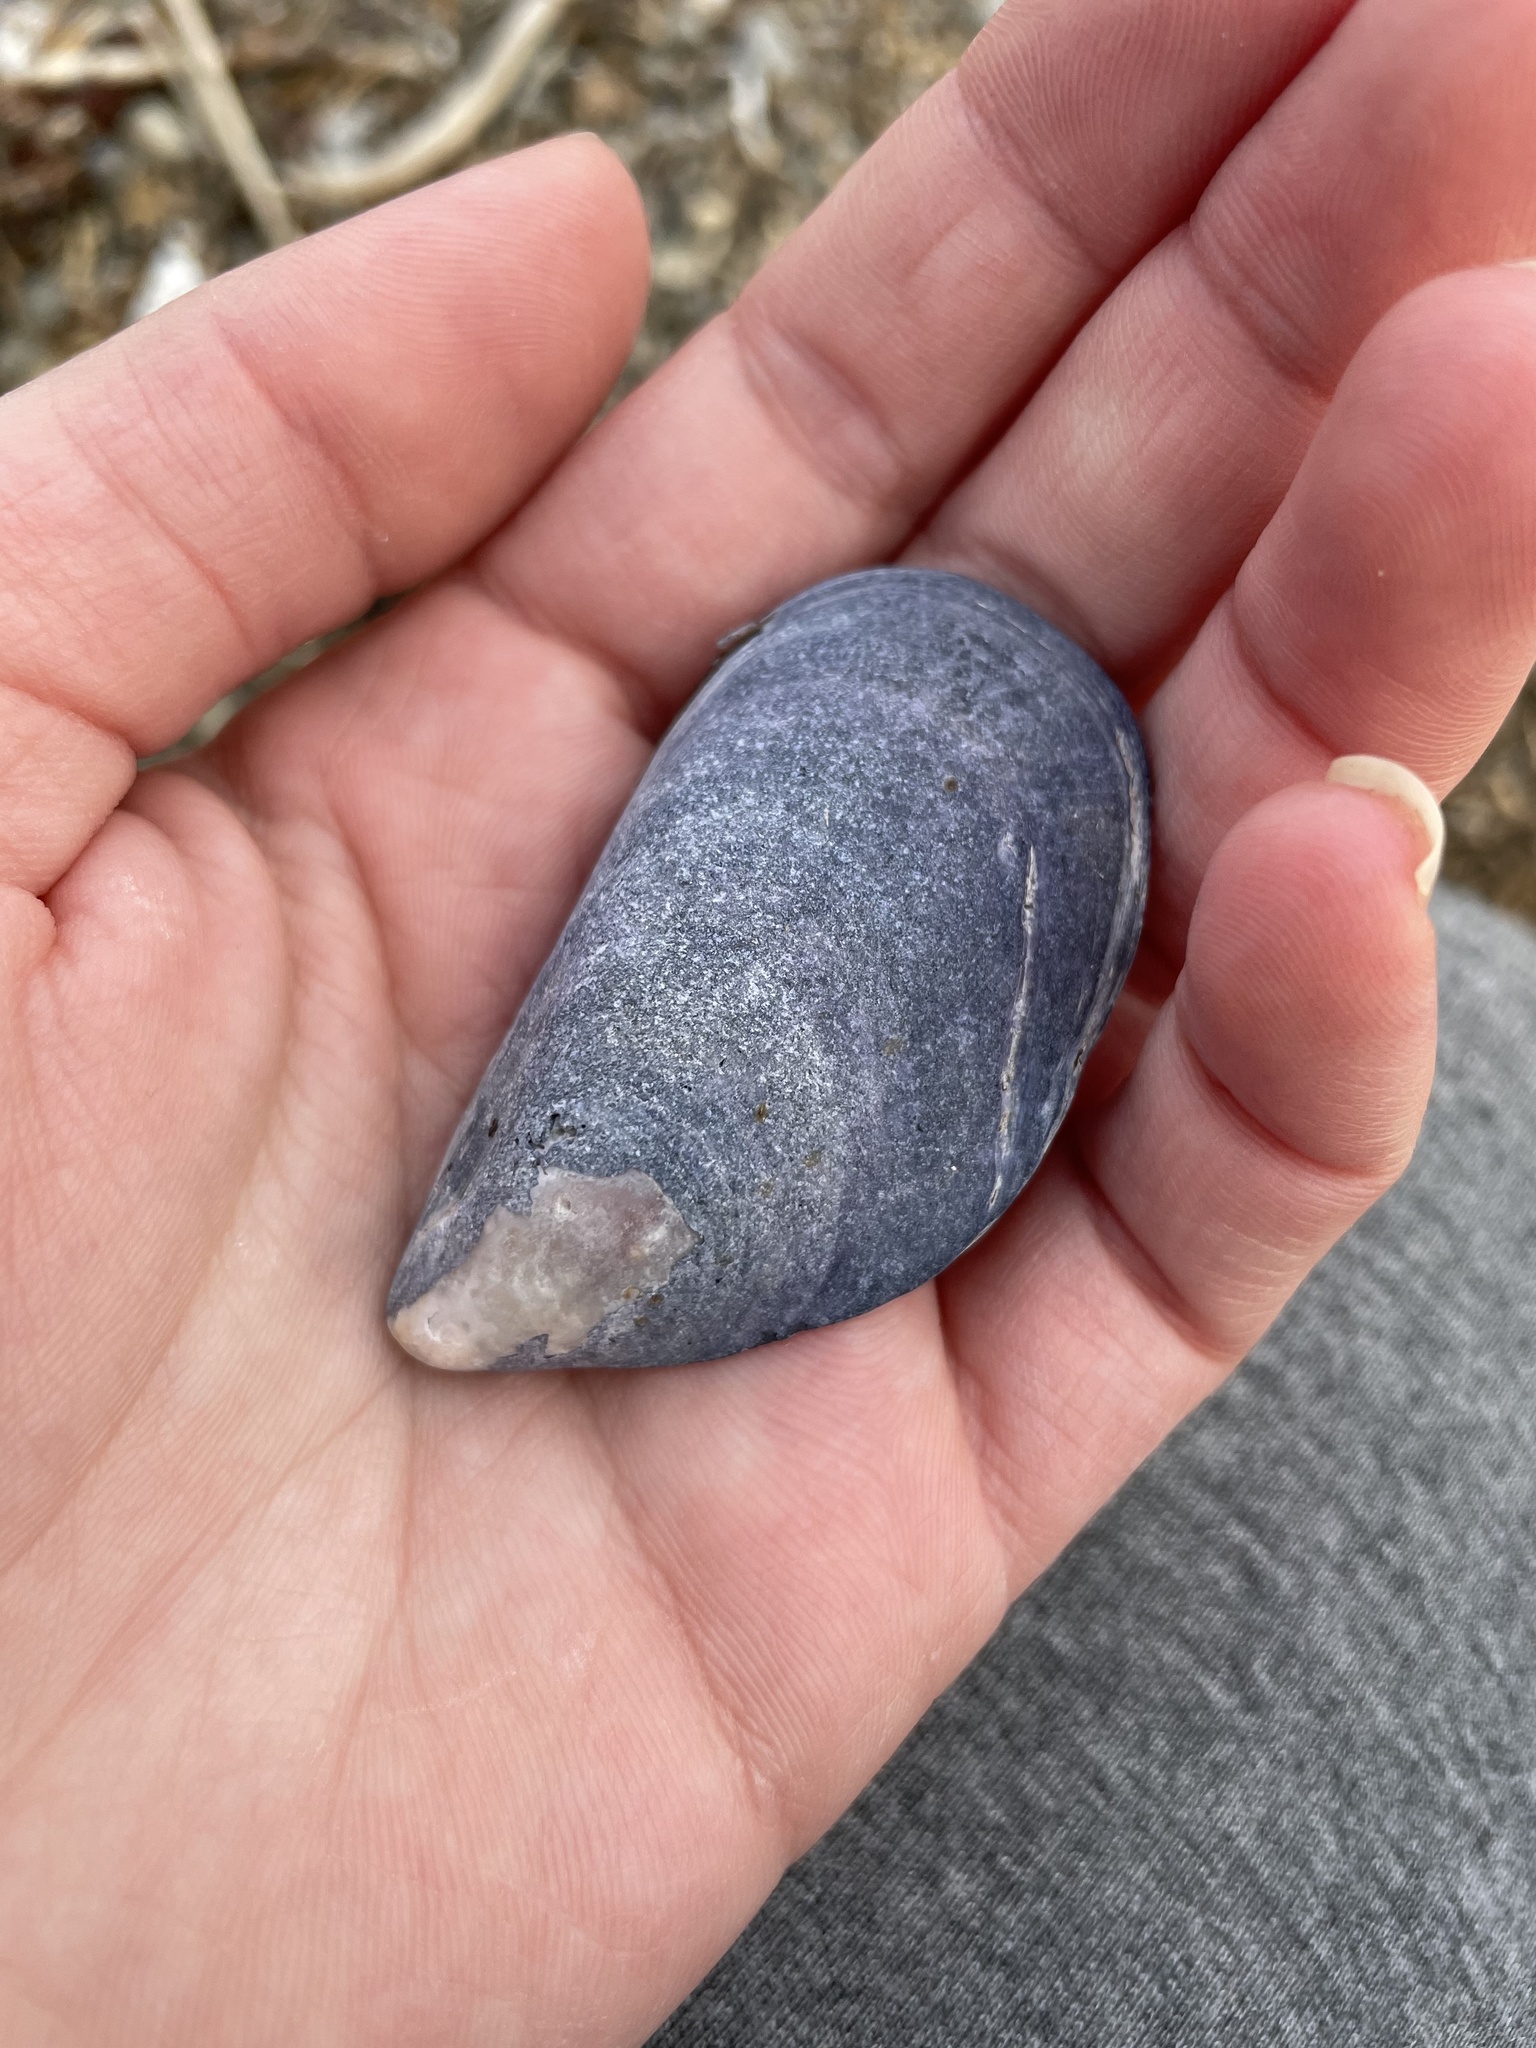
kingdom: Animalia
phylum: Mollusca
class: Bivalvia
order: Mytilida
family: Mytilidae
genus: Mytilus
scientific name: Mytilus edulis
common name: Blue mussel
